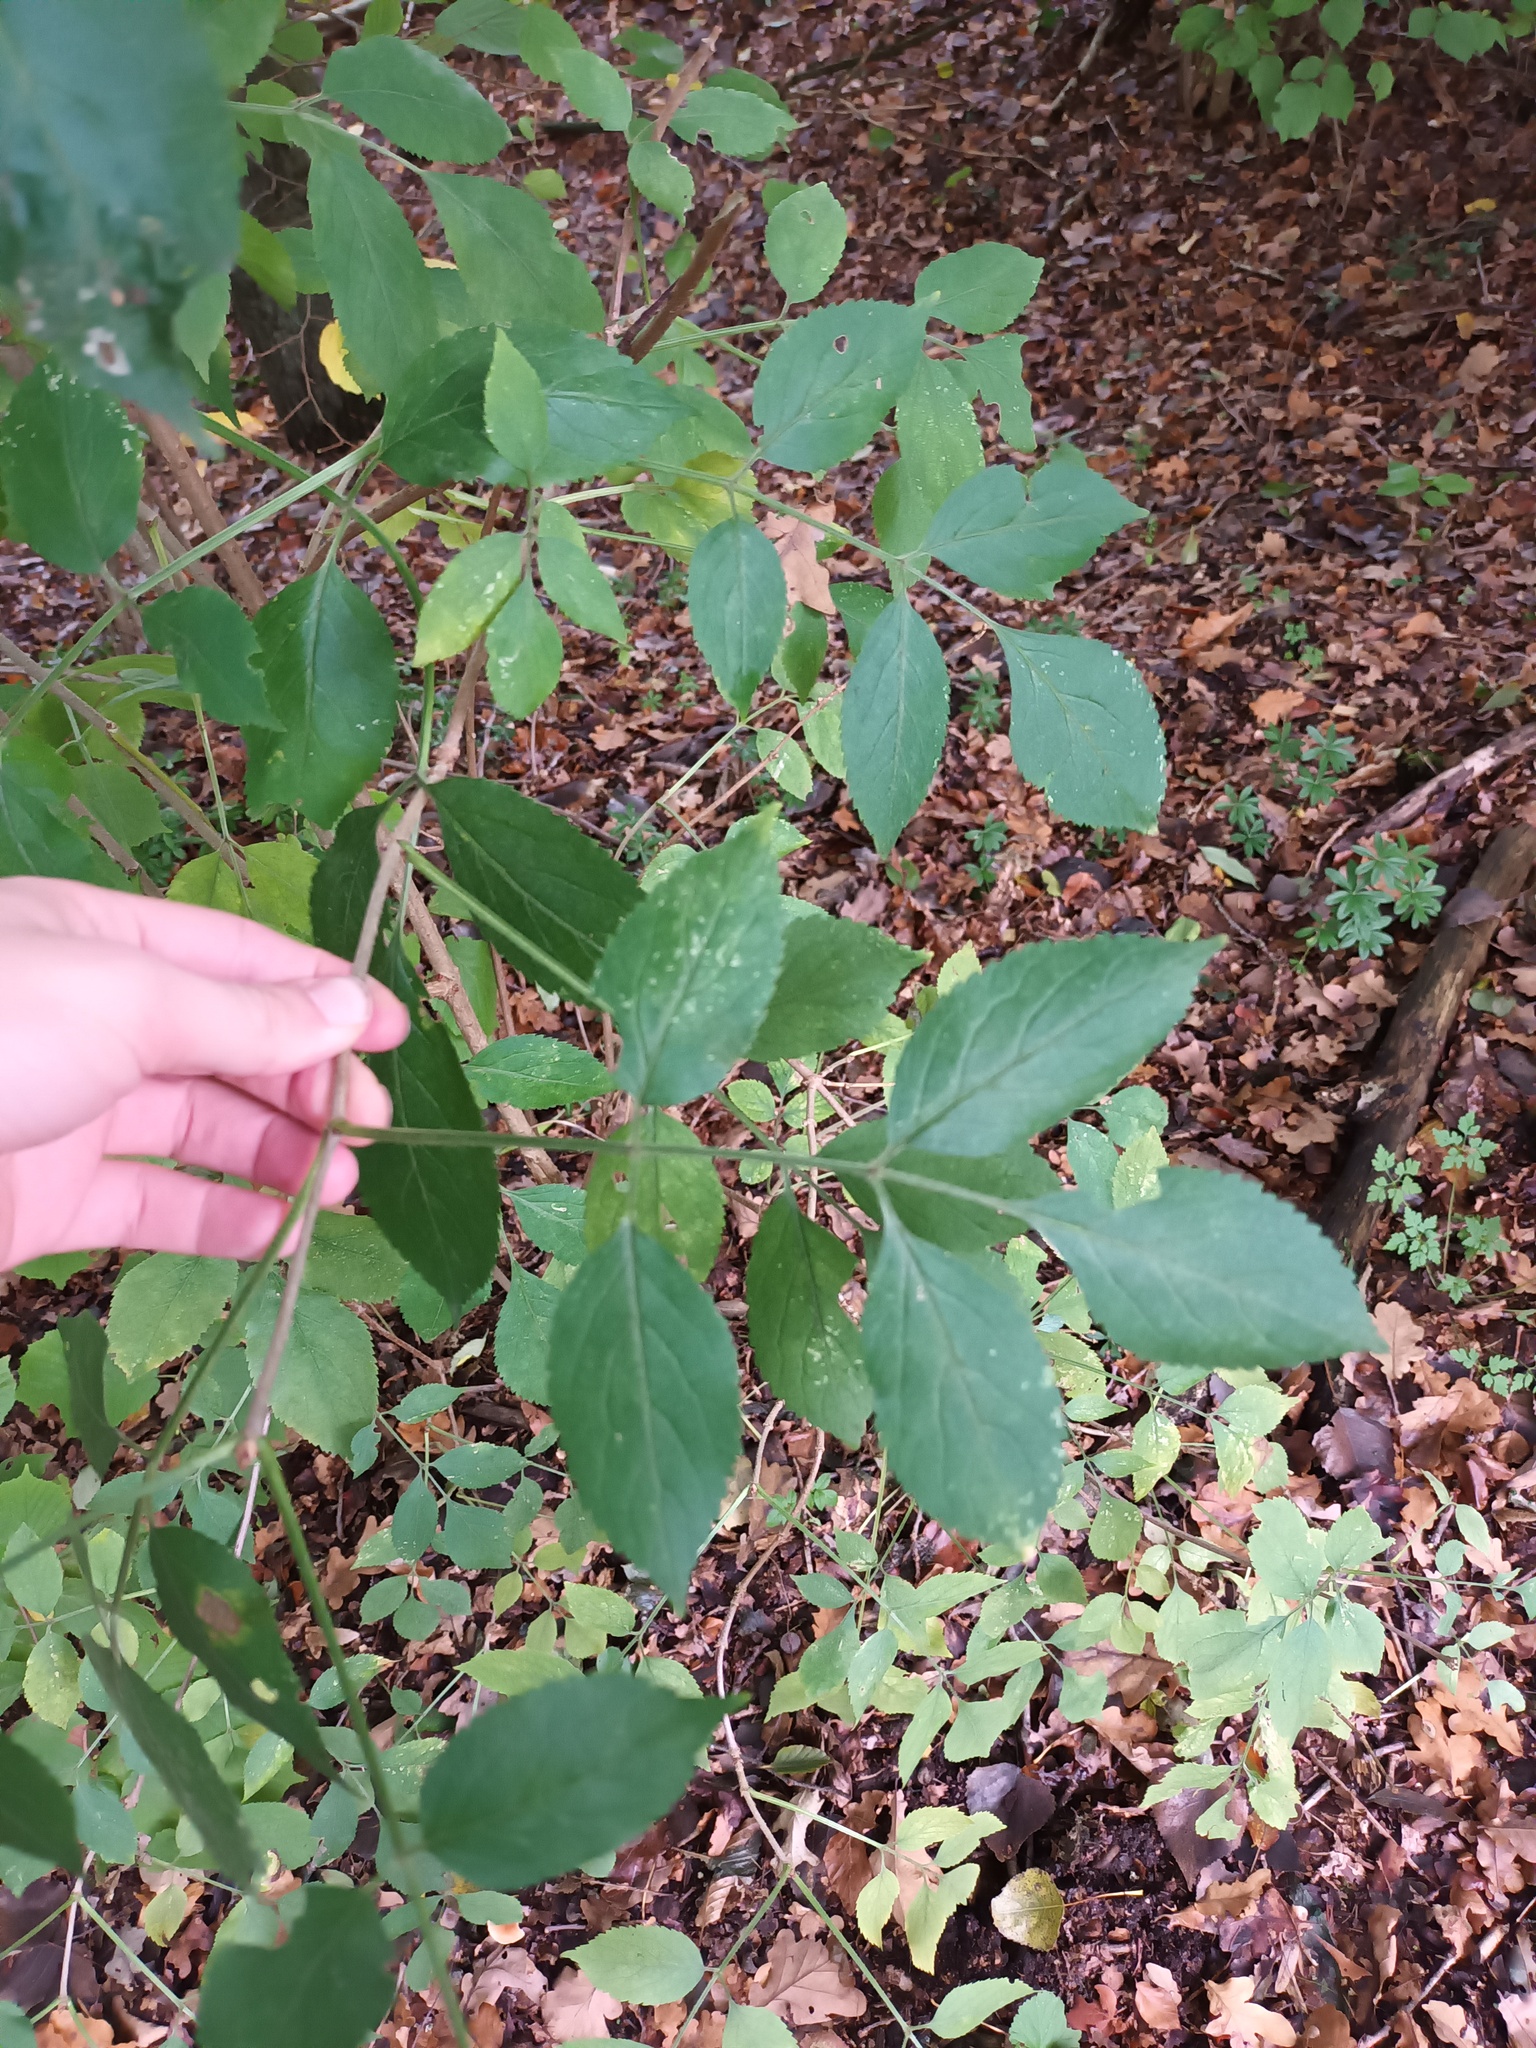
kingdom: Plantae
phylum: Tracheophyta
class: Magnoliopsida
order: Dipsacales
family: Viburnaceae
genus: Sambucus
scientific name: Sambucus nigra
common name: Elder
